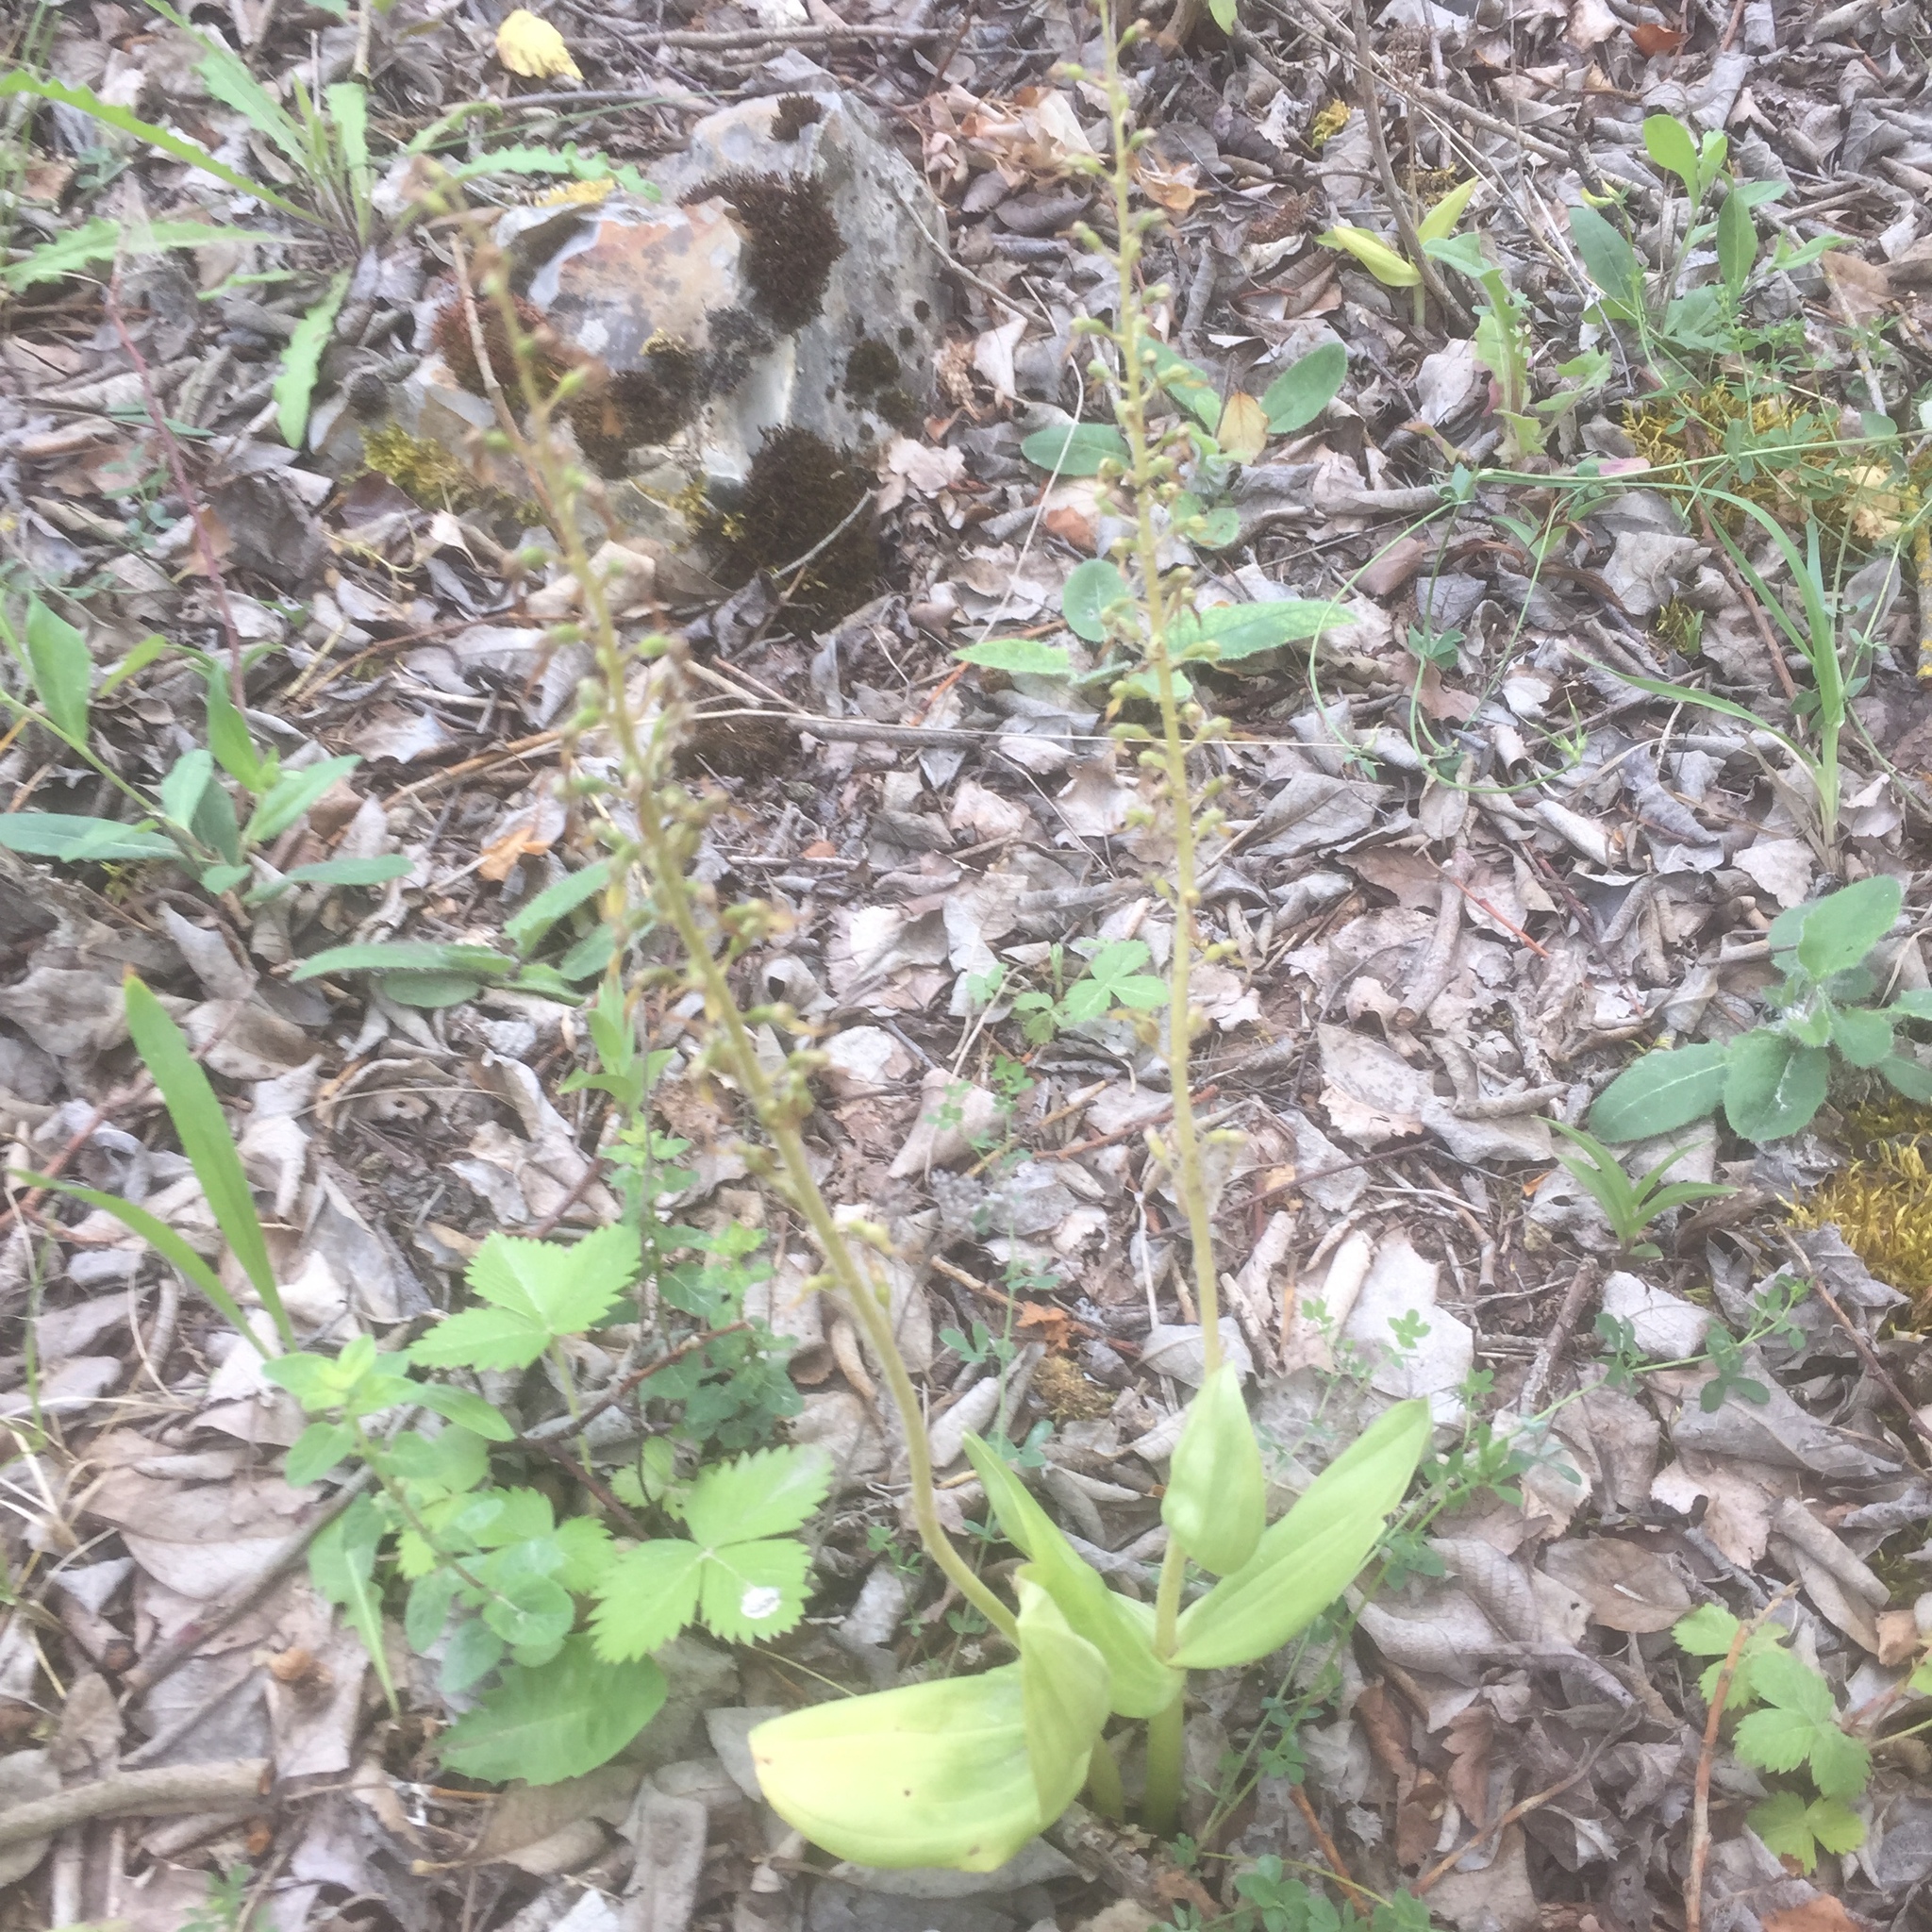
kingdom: Plantae
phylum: Tracheophyta
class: Liliopsida
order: Asparagales
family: Orchidaceae
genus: Neottia
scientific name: Neottia ovata
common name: Common twayblade
